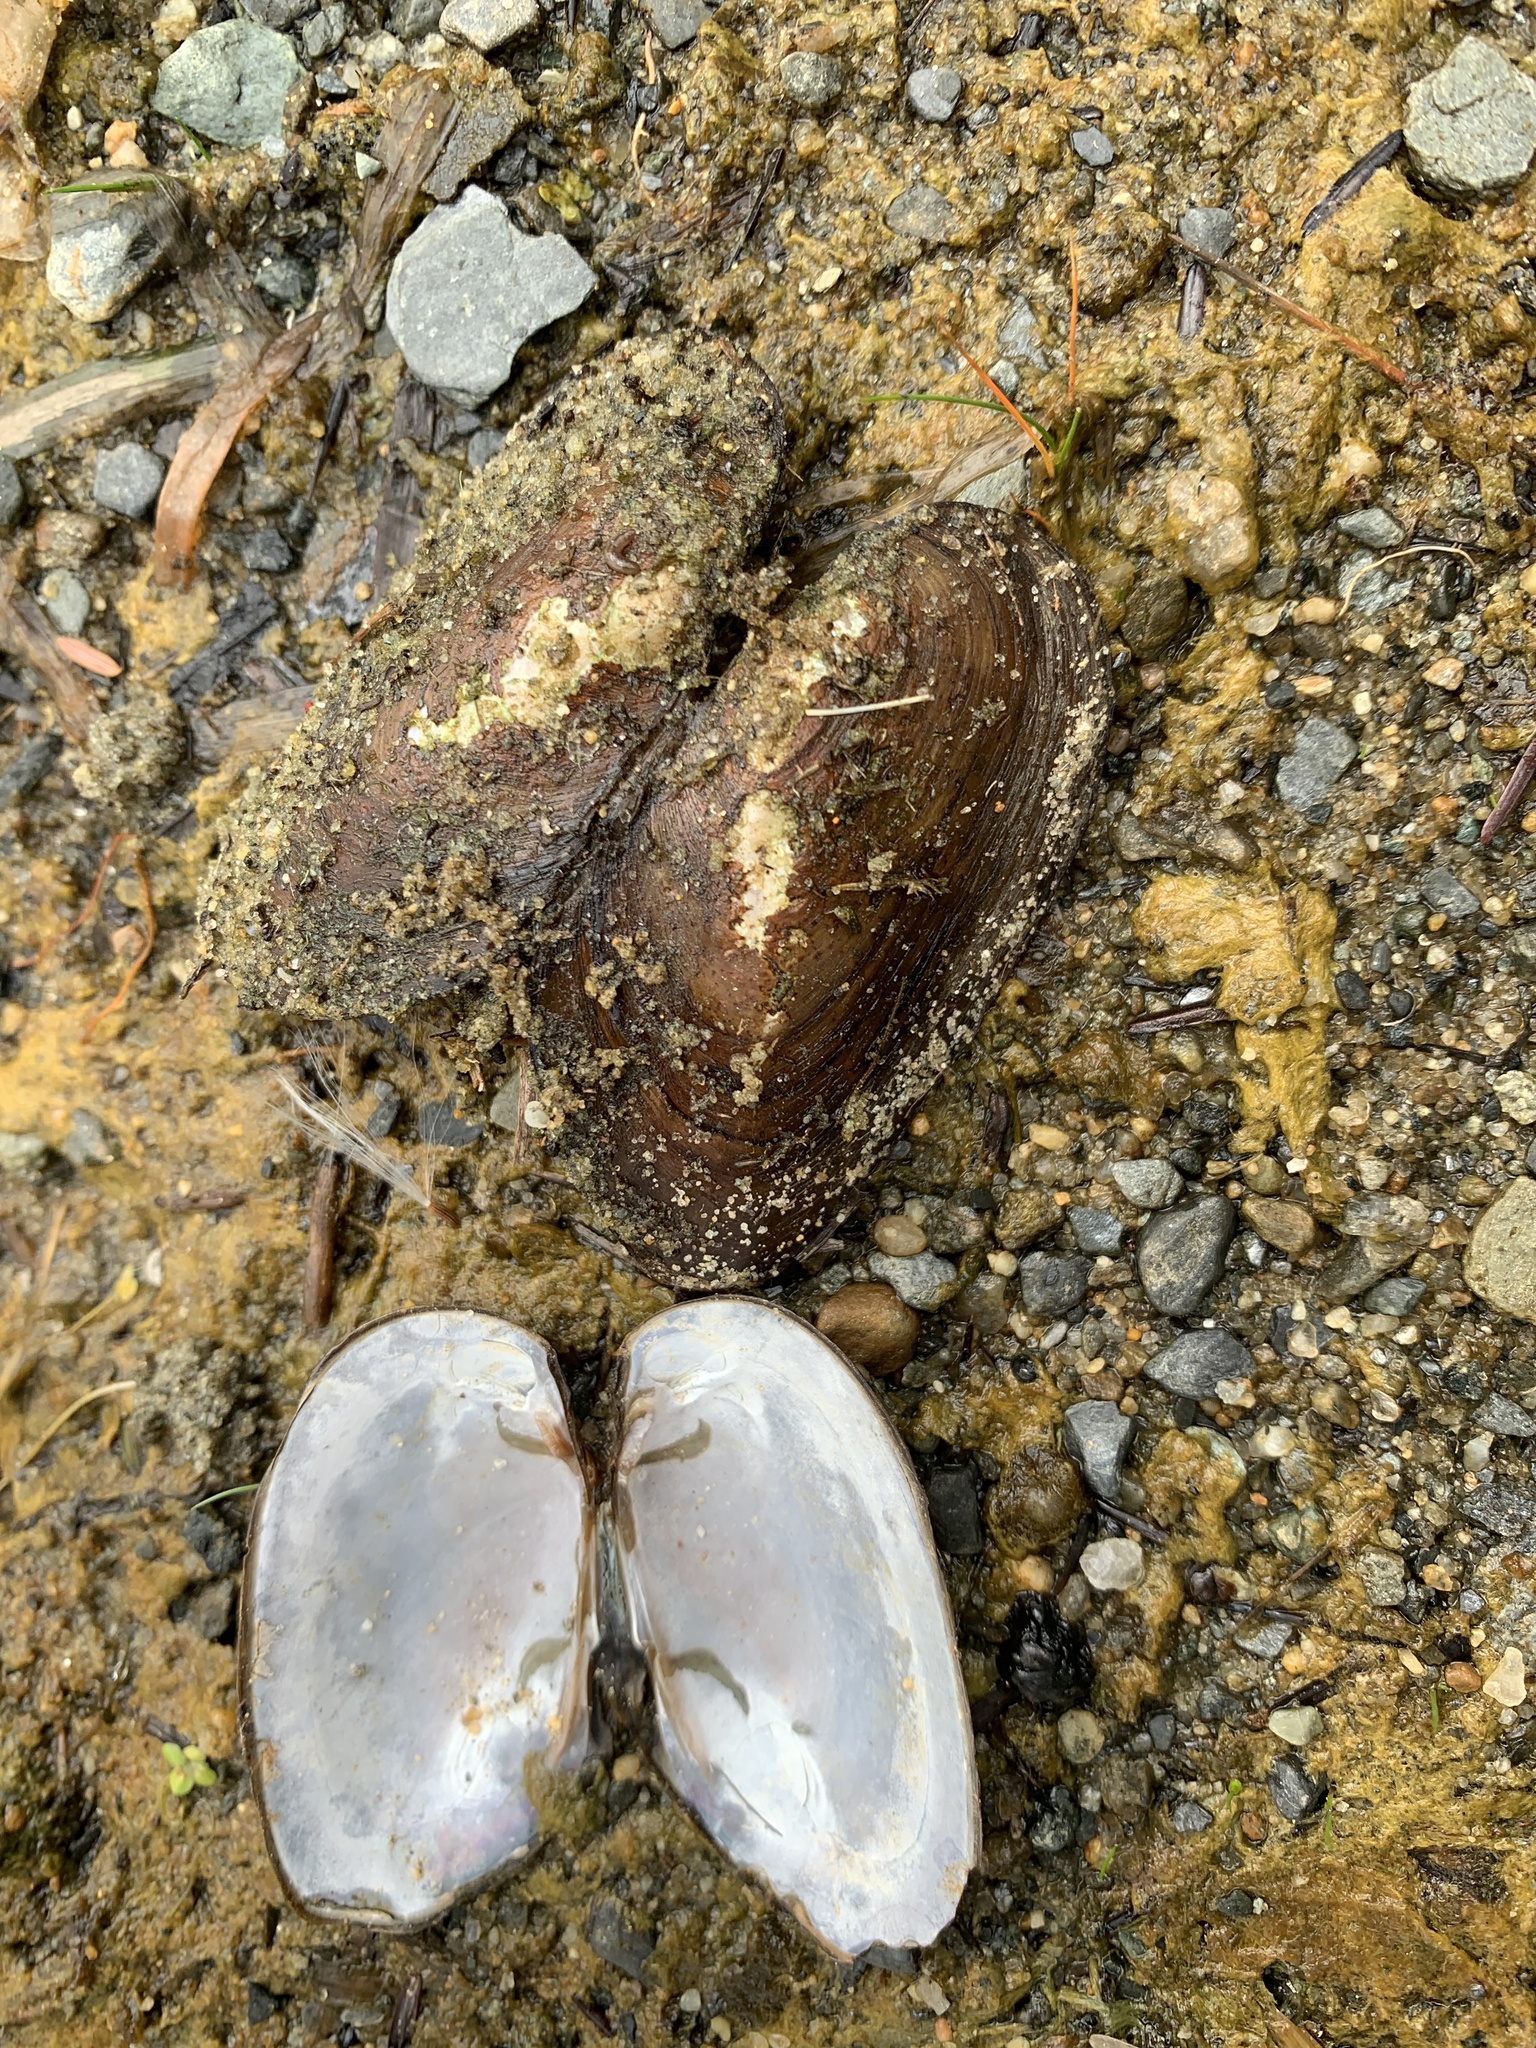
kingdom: Animalia
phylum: Mollusca
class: Bivalvia
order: Unionida
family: Unionidae
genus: Elliptio
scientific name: Elliptio complanata
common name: Eastern elliptio
